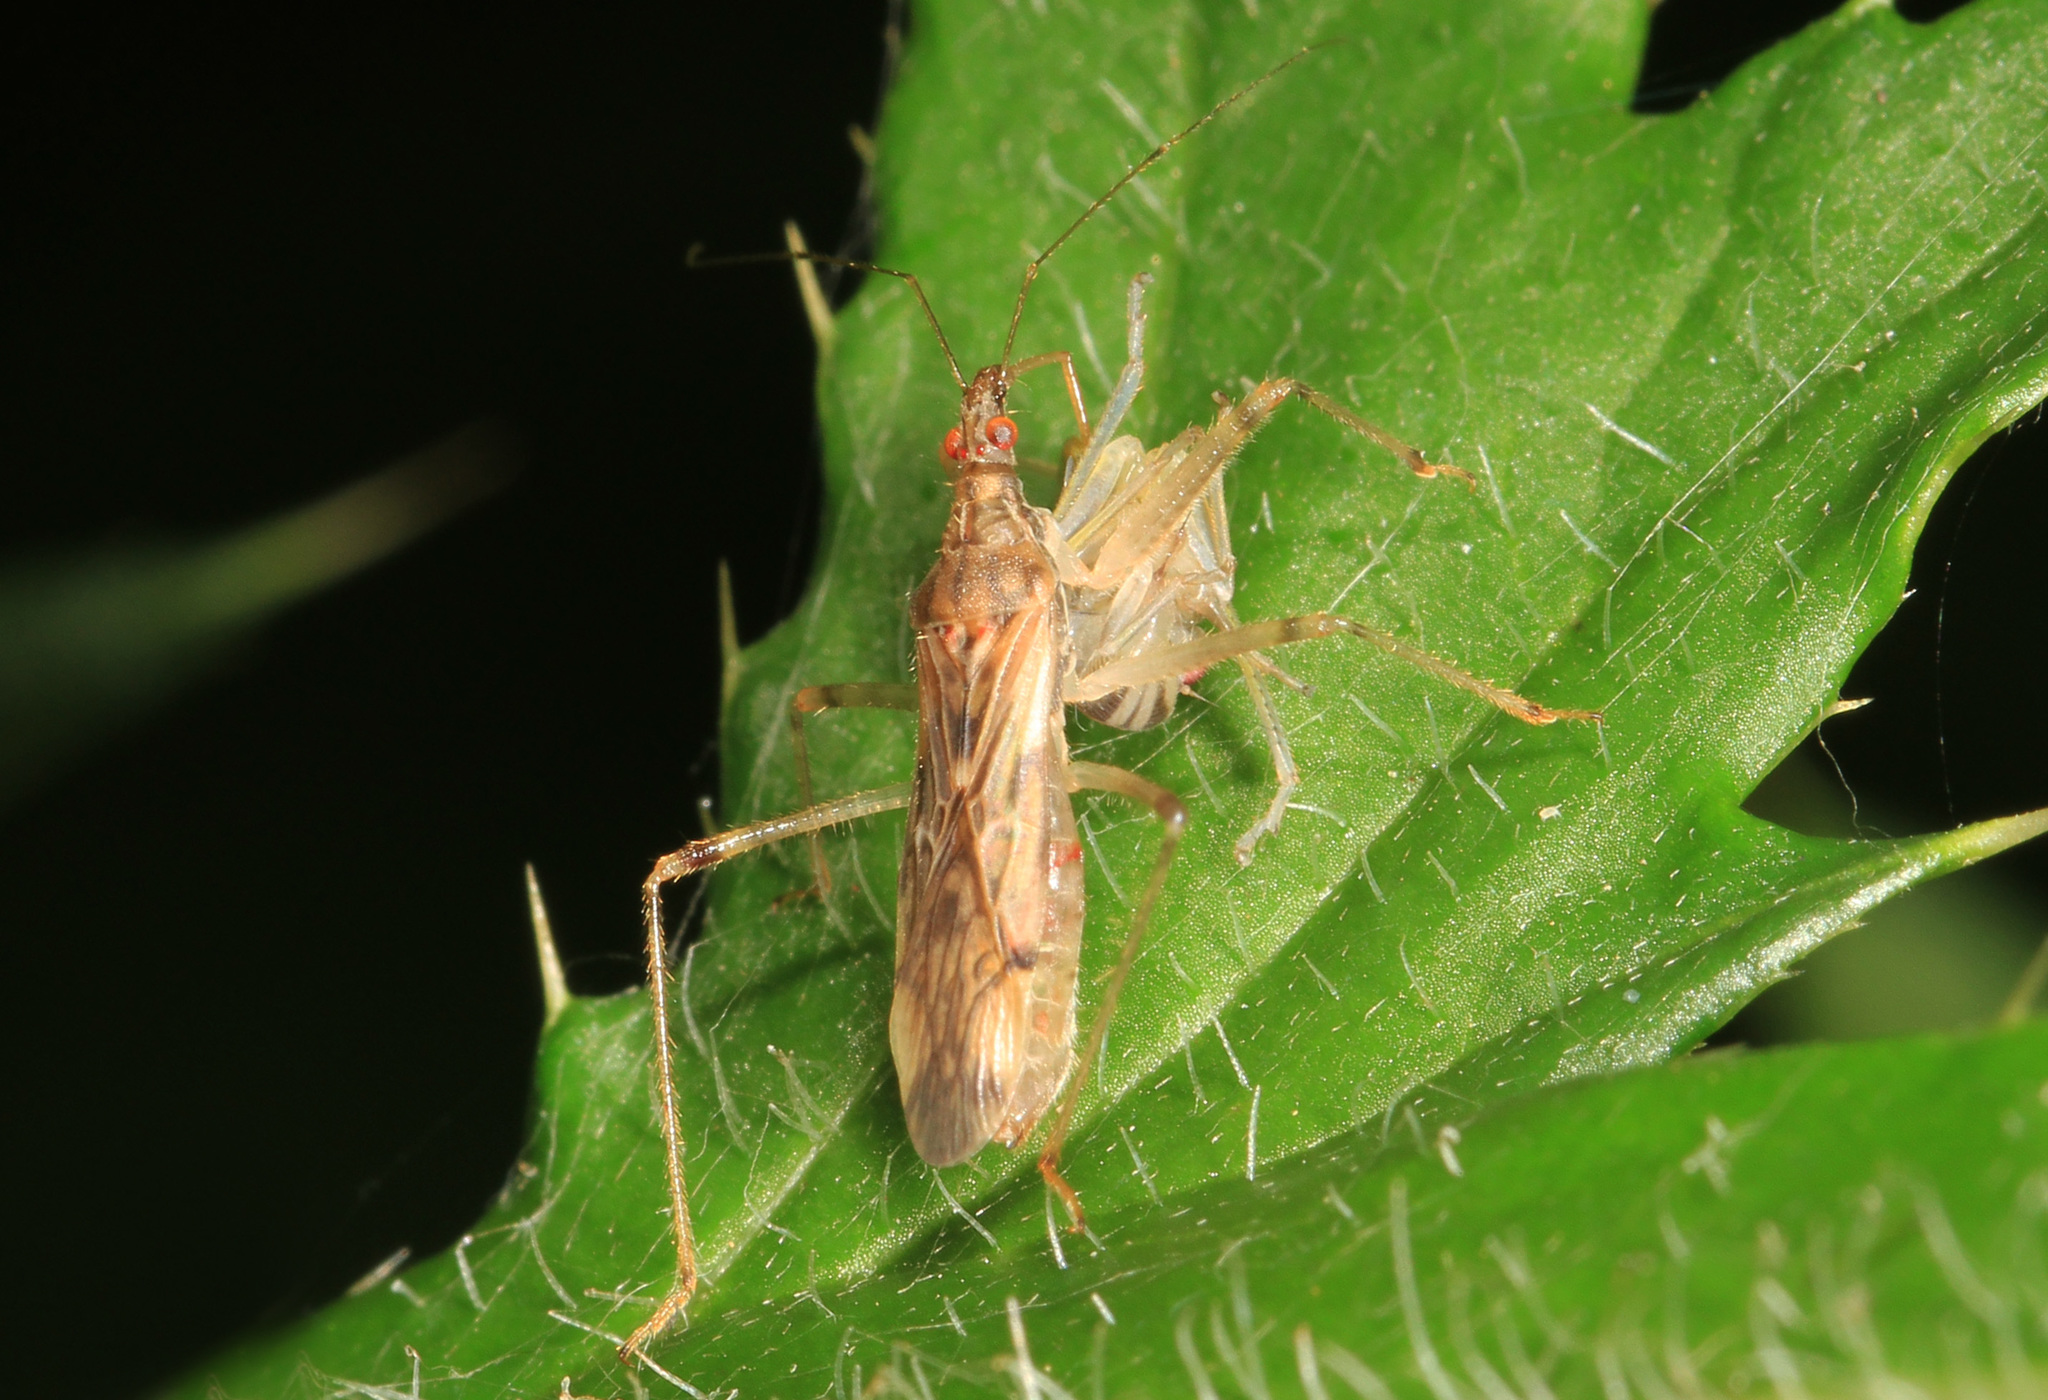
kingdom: Animalia
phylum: Arthropoda
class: Insecta
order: Hemiptera
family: Nabidae
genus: Lasiomerus
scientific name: Lasiomerus annulatus
